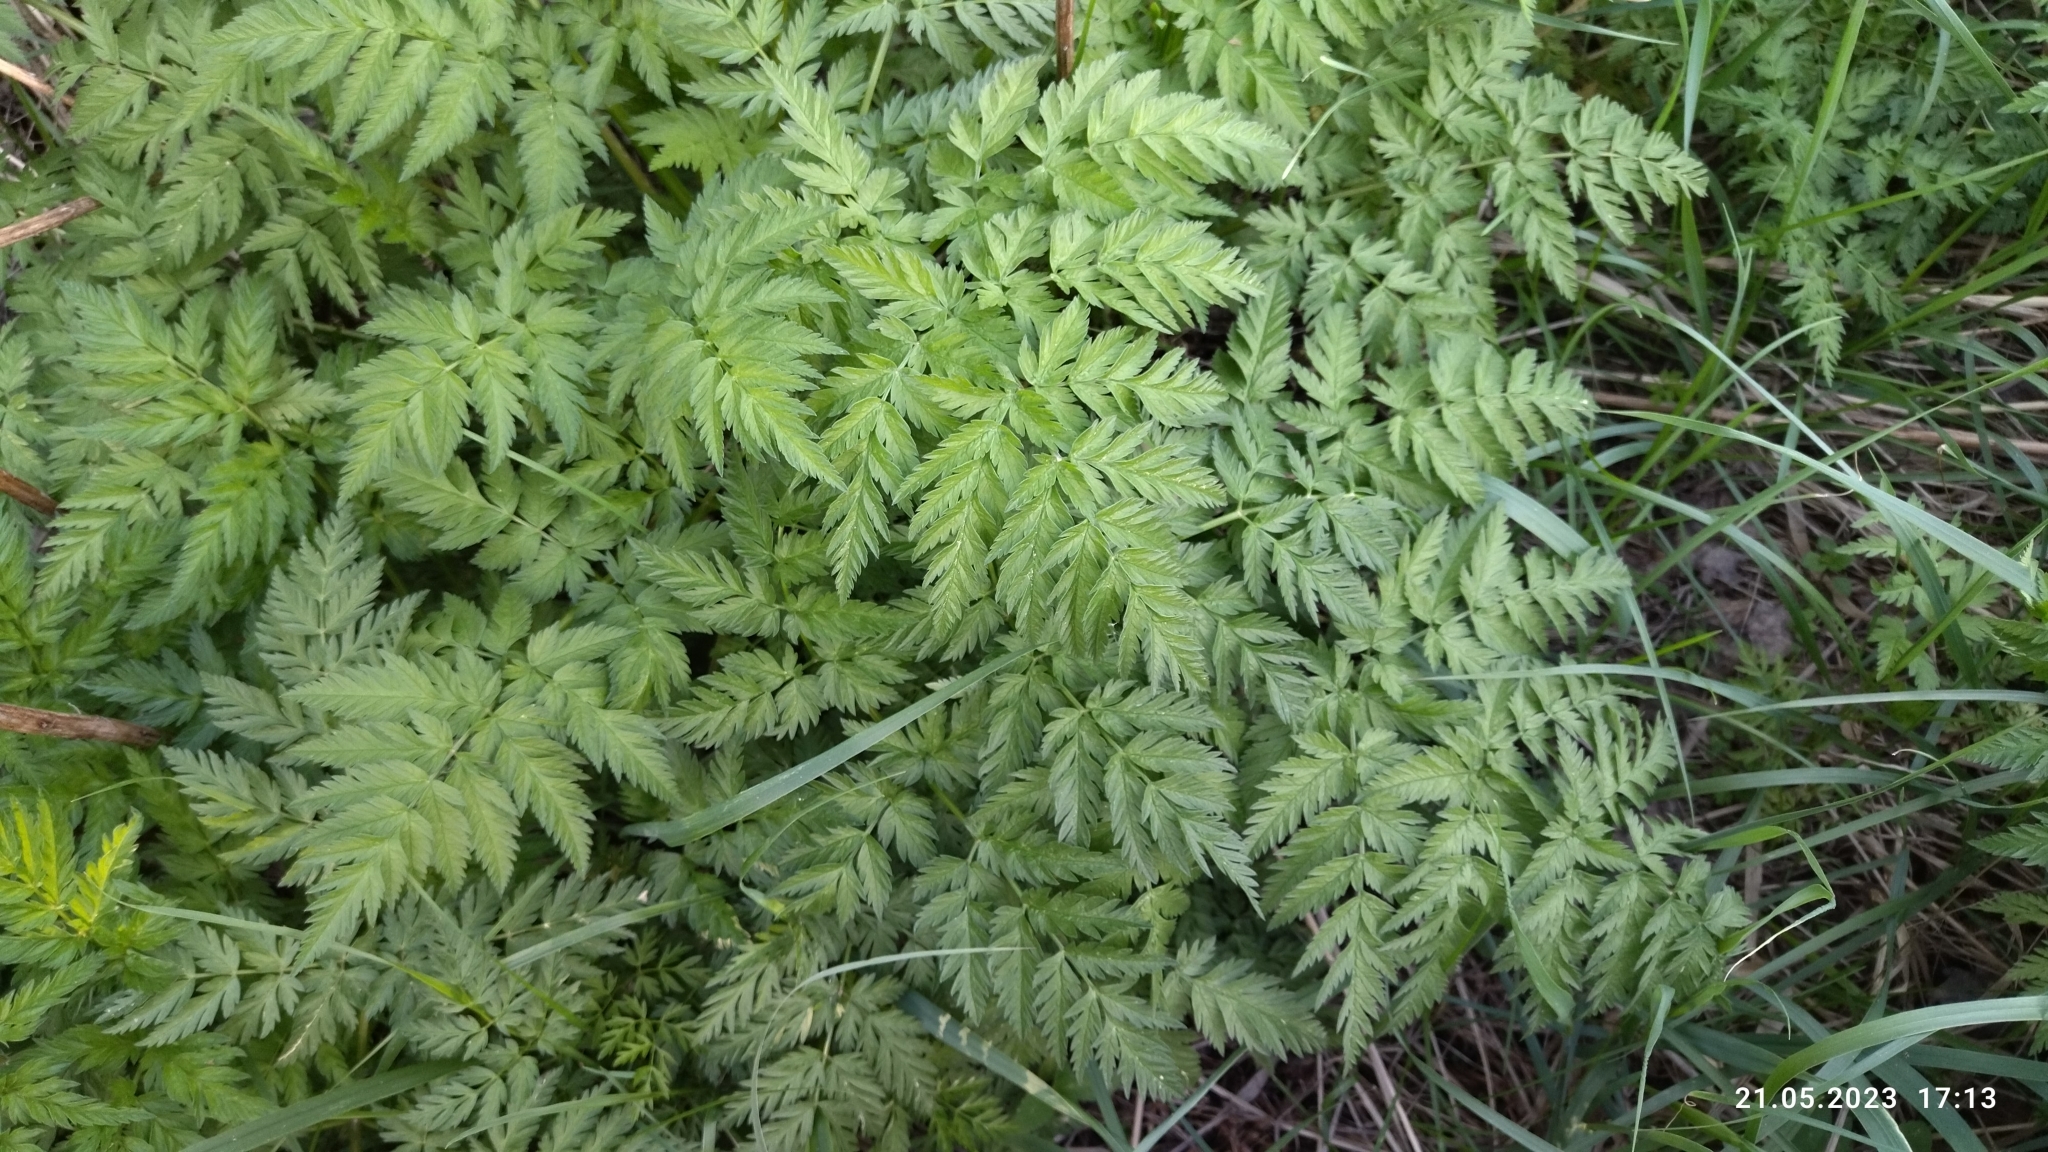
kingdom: Plantae
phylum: Tracheophyta
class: Magnoliopsida
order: Apiales
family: Apiaceae
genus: Anthriscus
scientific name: Anthriscus sylvestris
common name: Cow parsley
